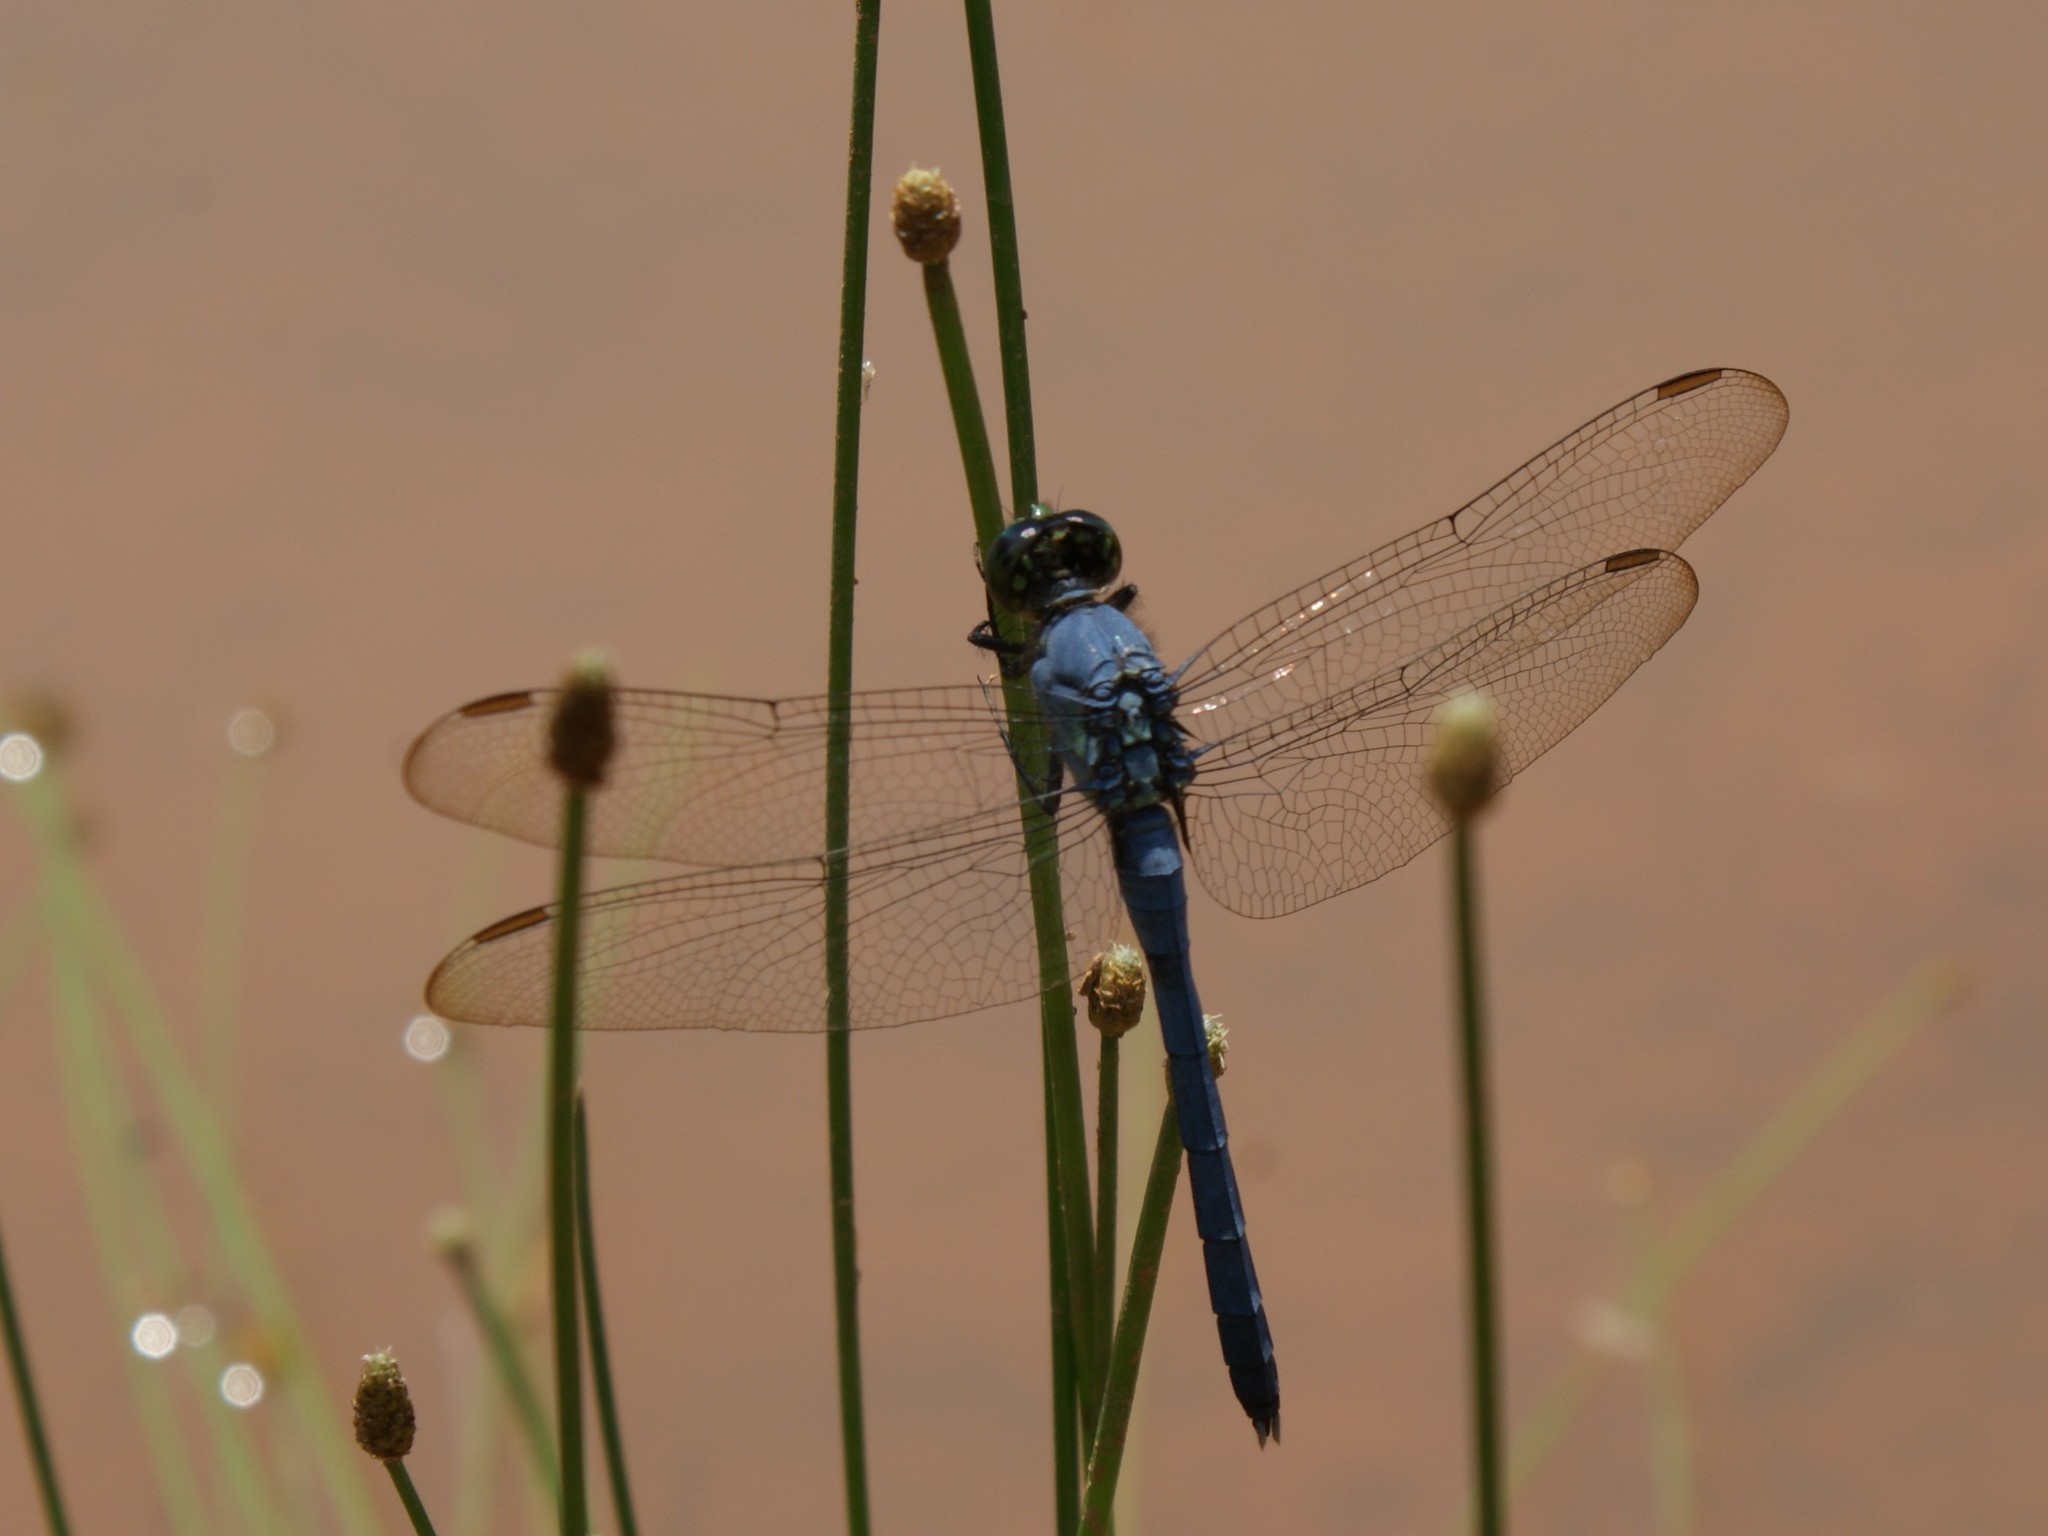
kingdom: Animalia
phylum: Arthropoda
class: Insecta
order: Odonata
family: Libellulidae
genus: Erythemis
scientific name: Erythemis simplicicollis
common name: Eastern pondhawk
